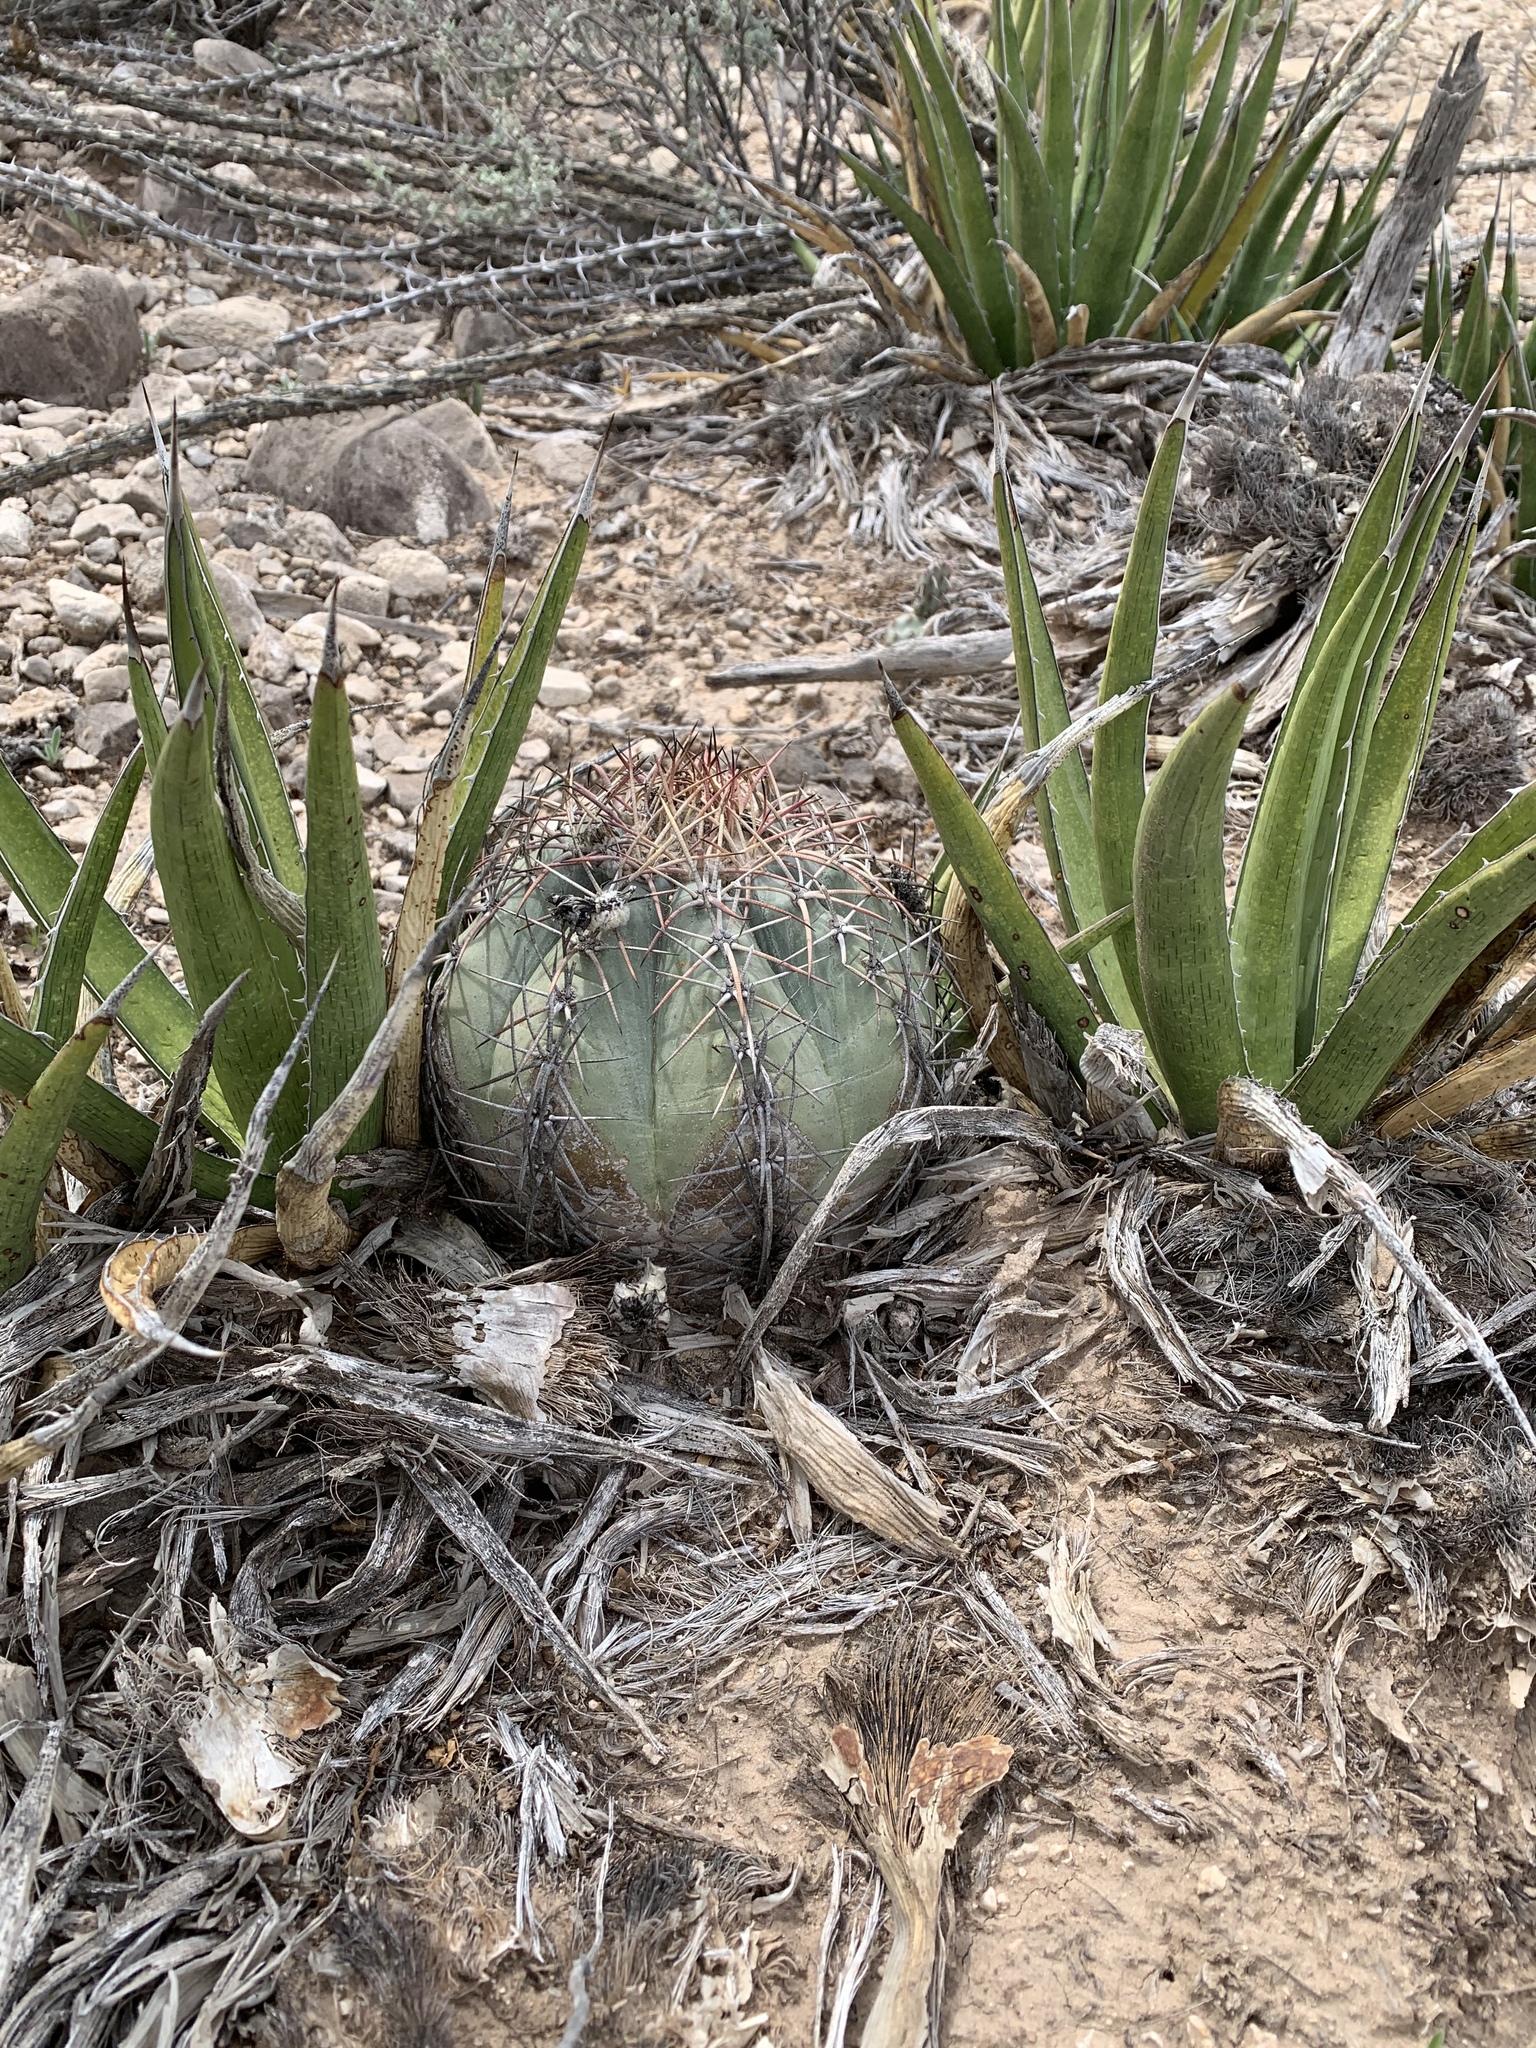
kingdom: Plantae
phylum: Tracheophyta
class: Magnoliopsida
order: Caryophyllales
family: Cactaceae
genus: Echinocactus
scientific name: Echinocactus horizonthalonius
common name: Devilshead
